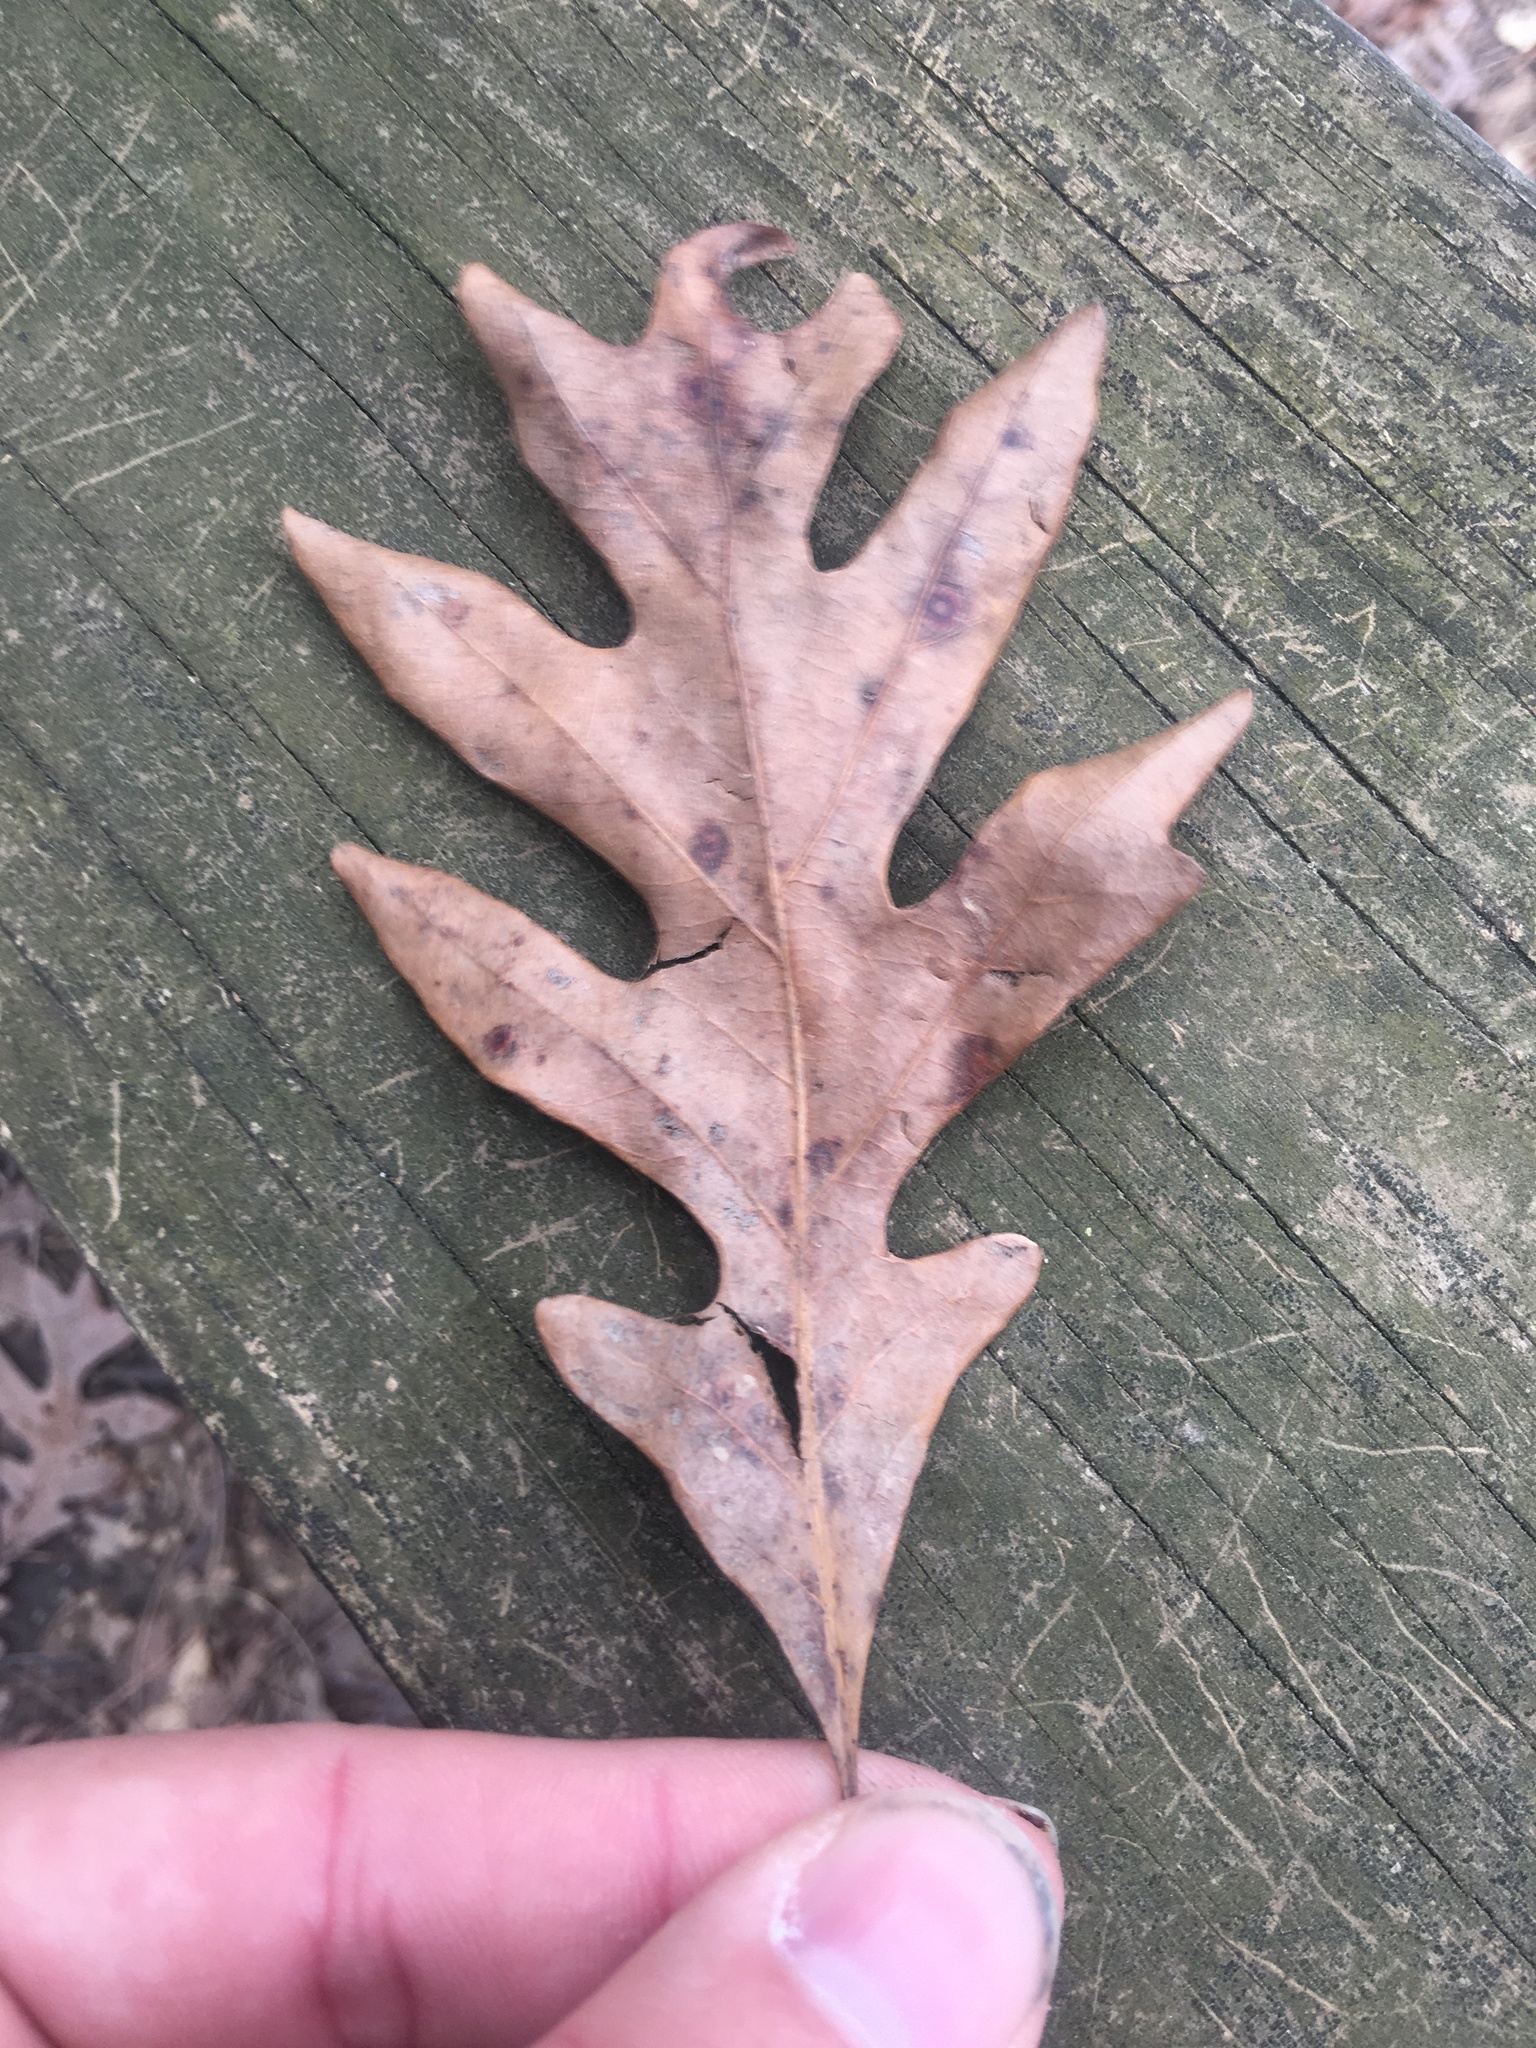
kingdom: Plantae
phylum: Tracheophyta
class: Magnoliopsida
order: Fagales
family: Fagaceae
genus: Quercus
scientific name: Quercus alba
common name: White oak
